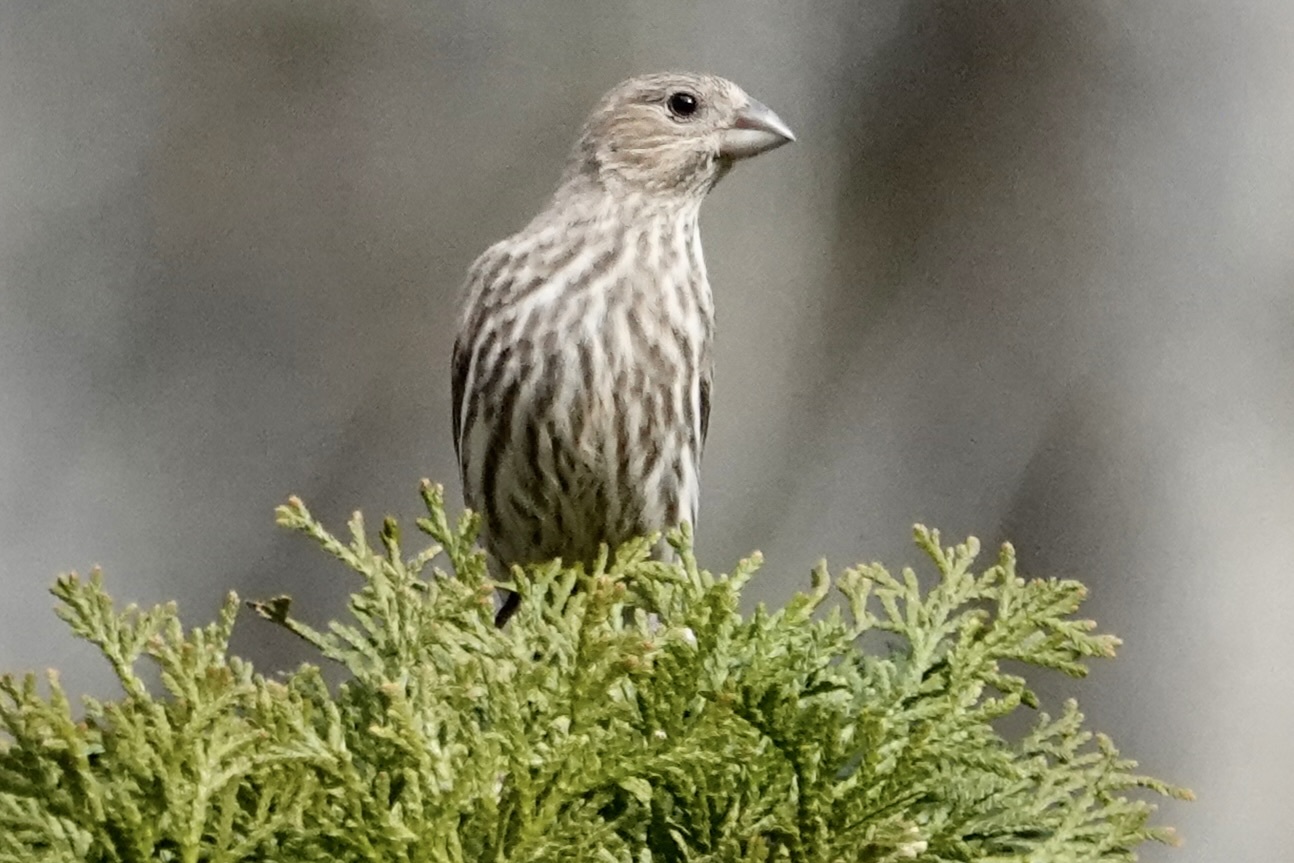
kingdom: Animalia
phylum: Chordata
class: Aves
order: Passeriformes
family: Fringillidae
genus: Haemorhous
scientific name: Haemorhous mexicanus
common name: House finch
